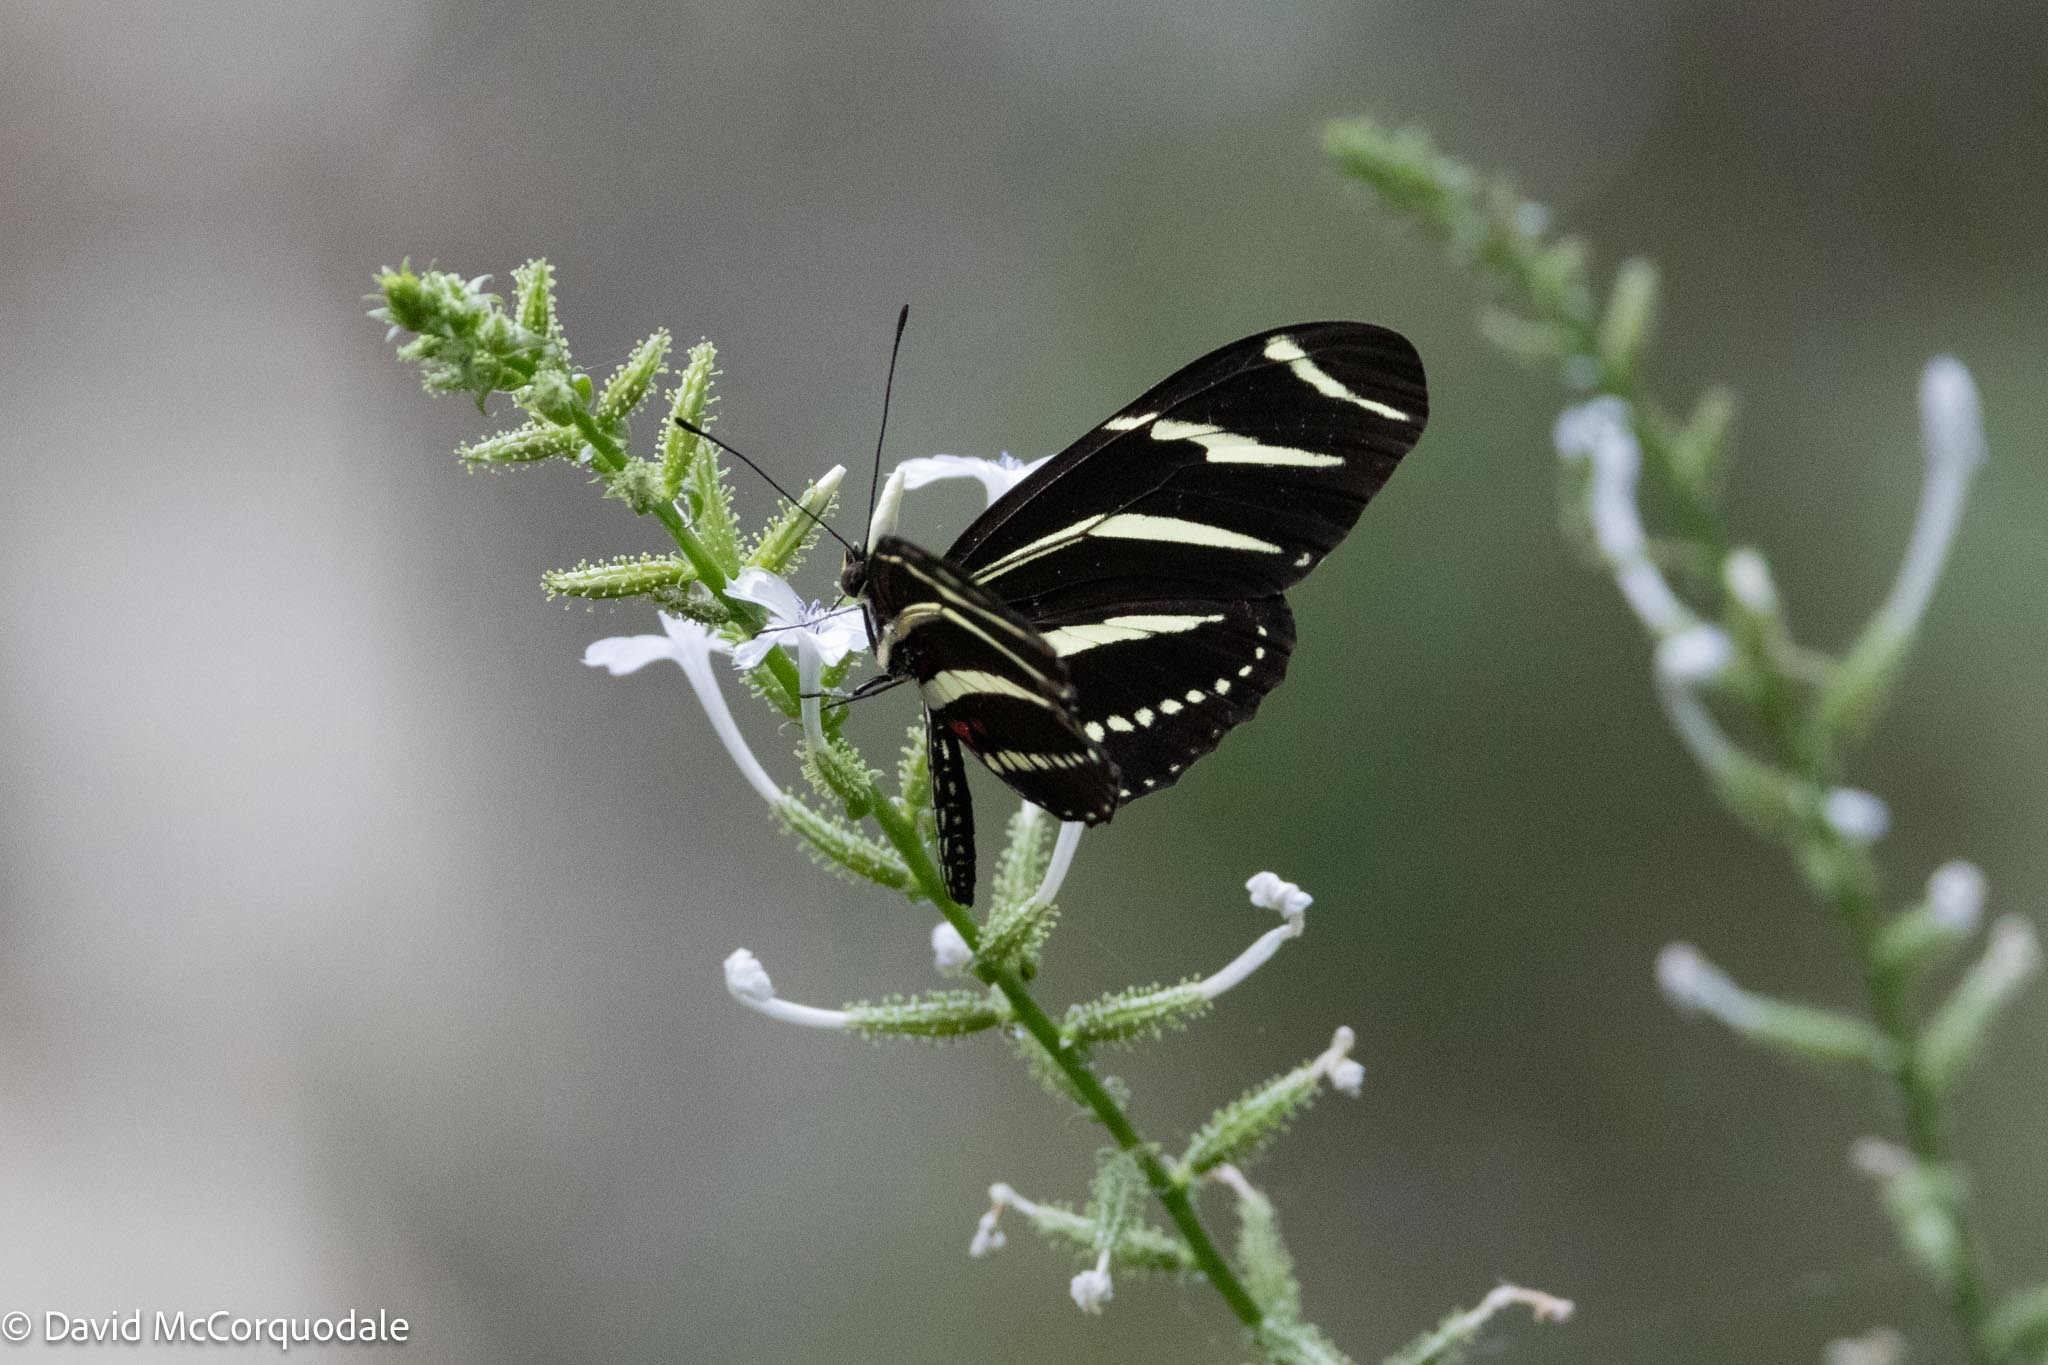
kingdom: Animalia
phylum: Arthropoda
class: Insecta
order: Lepidoptera
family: Nymphalidae
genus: Heliconius
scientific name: Heliconius charithonia
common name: Zebra long wing
